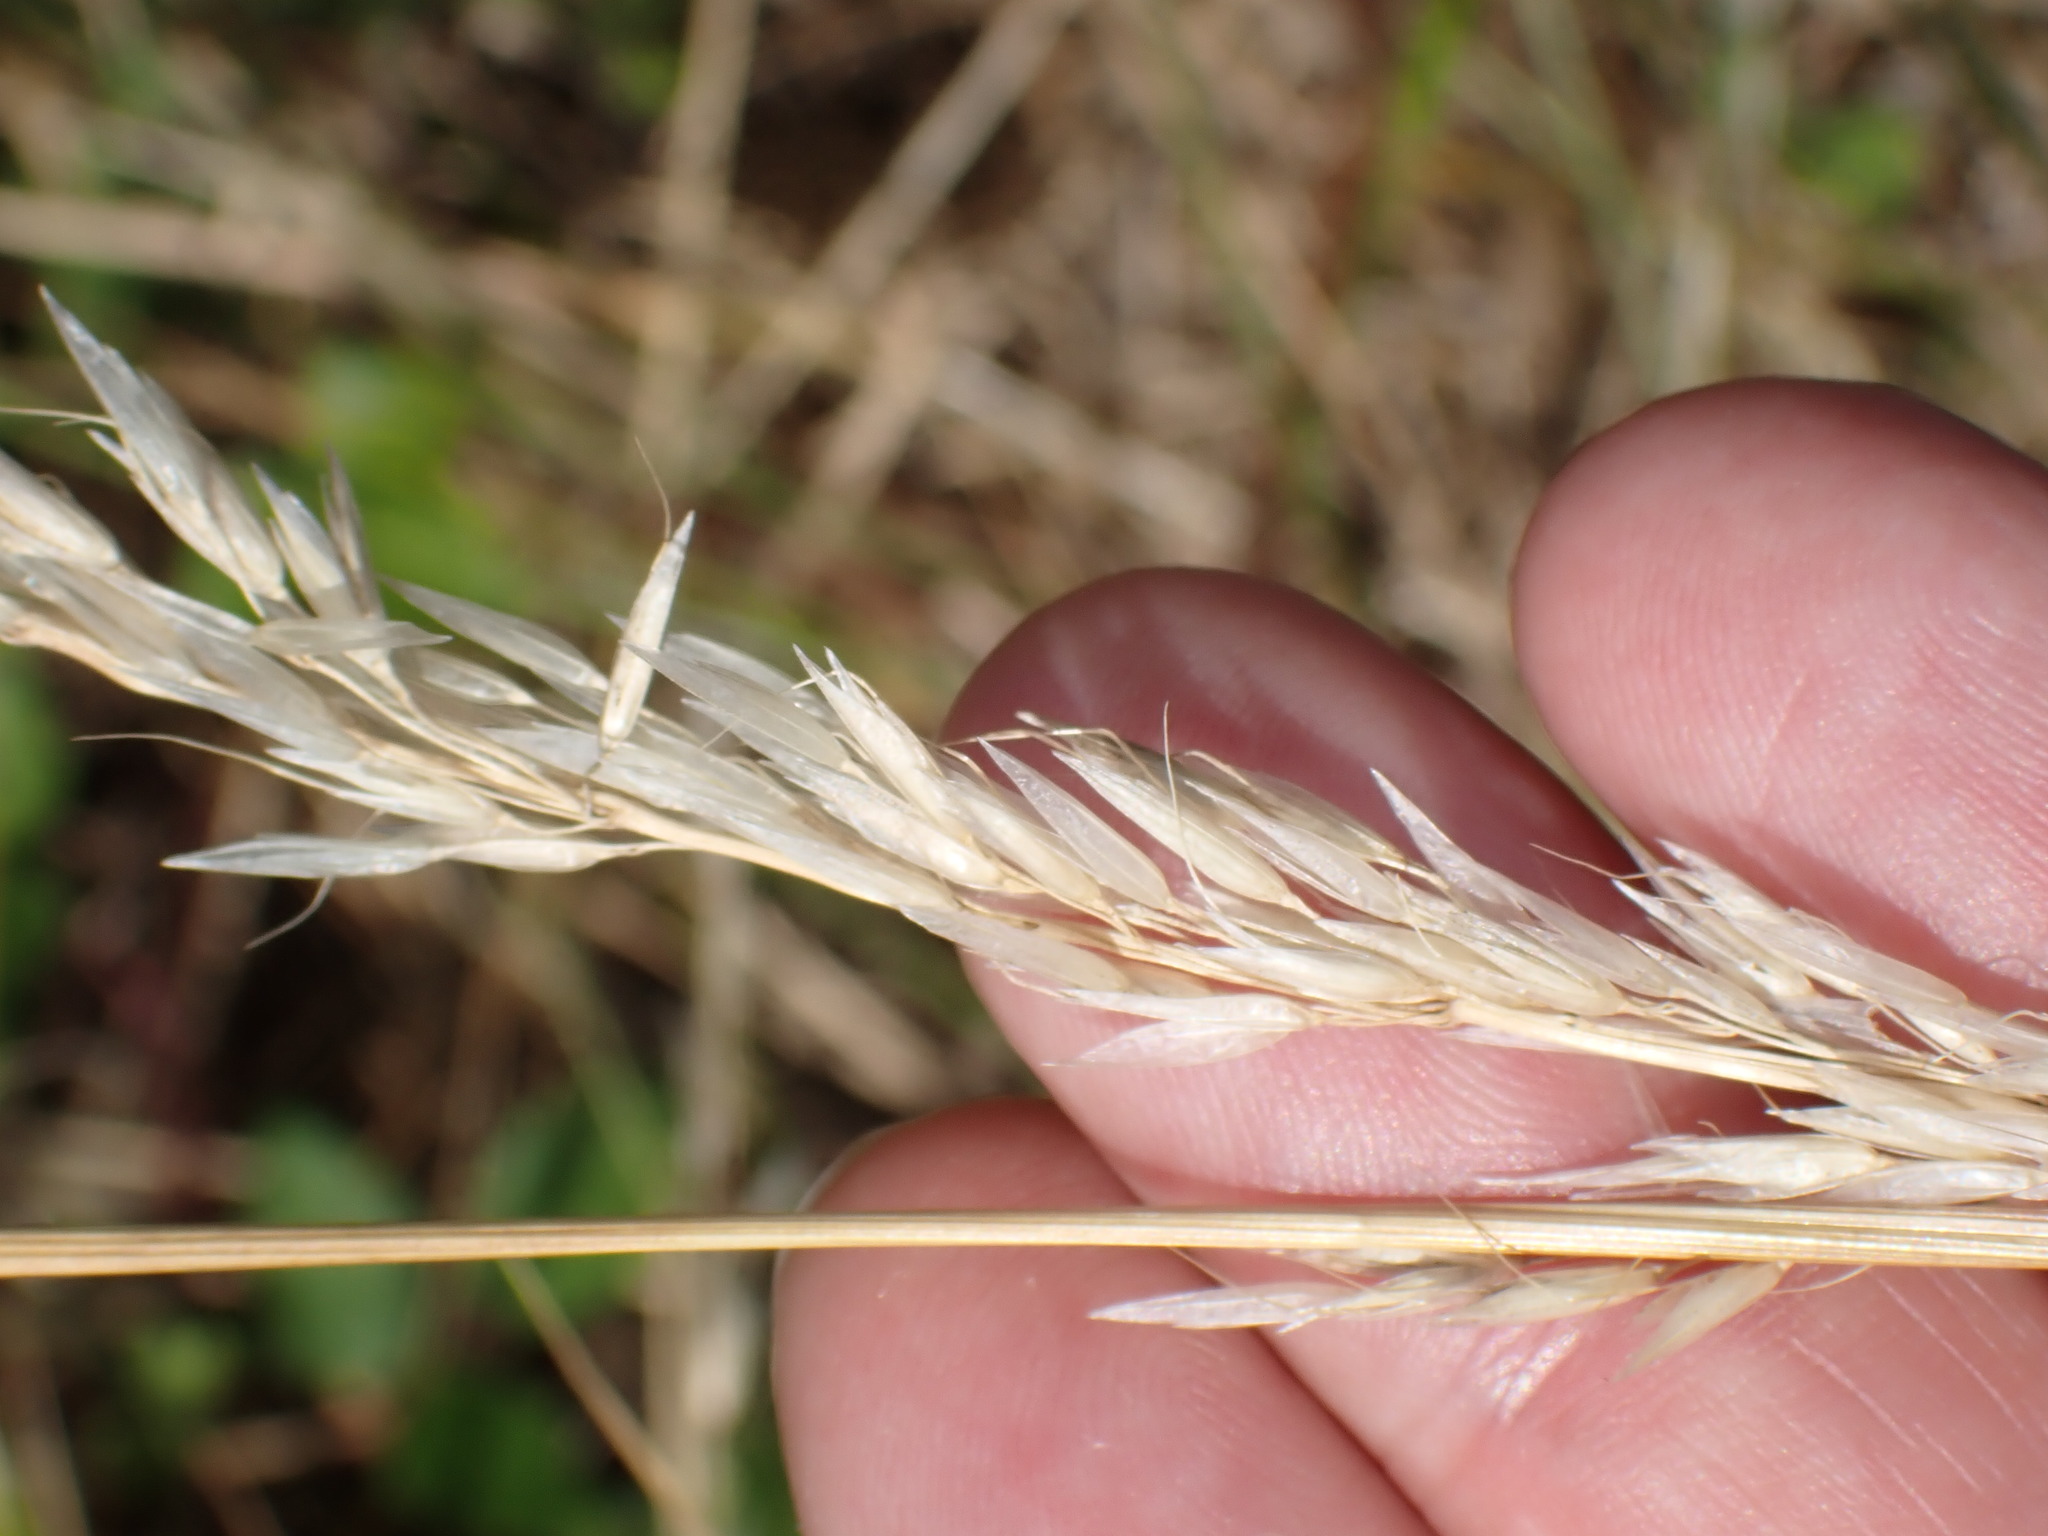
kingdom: Plantae
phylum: Tracheophyta
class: Liliopsida
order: Poales
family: Poaceae
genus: Arrhenatherum
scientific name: Arrhenatherum elatius
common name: Tall oatgrass
